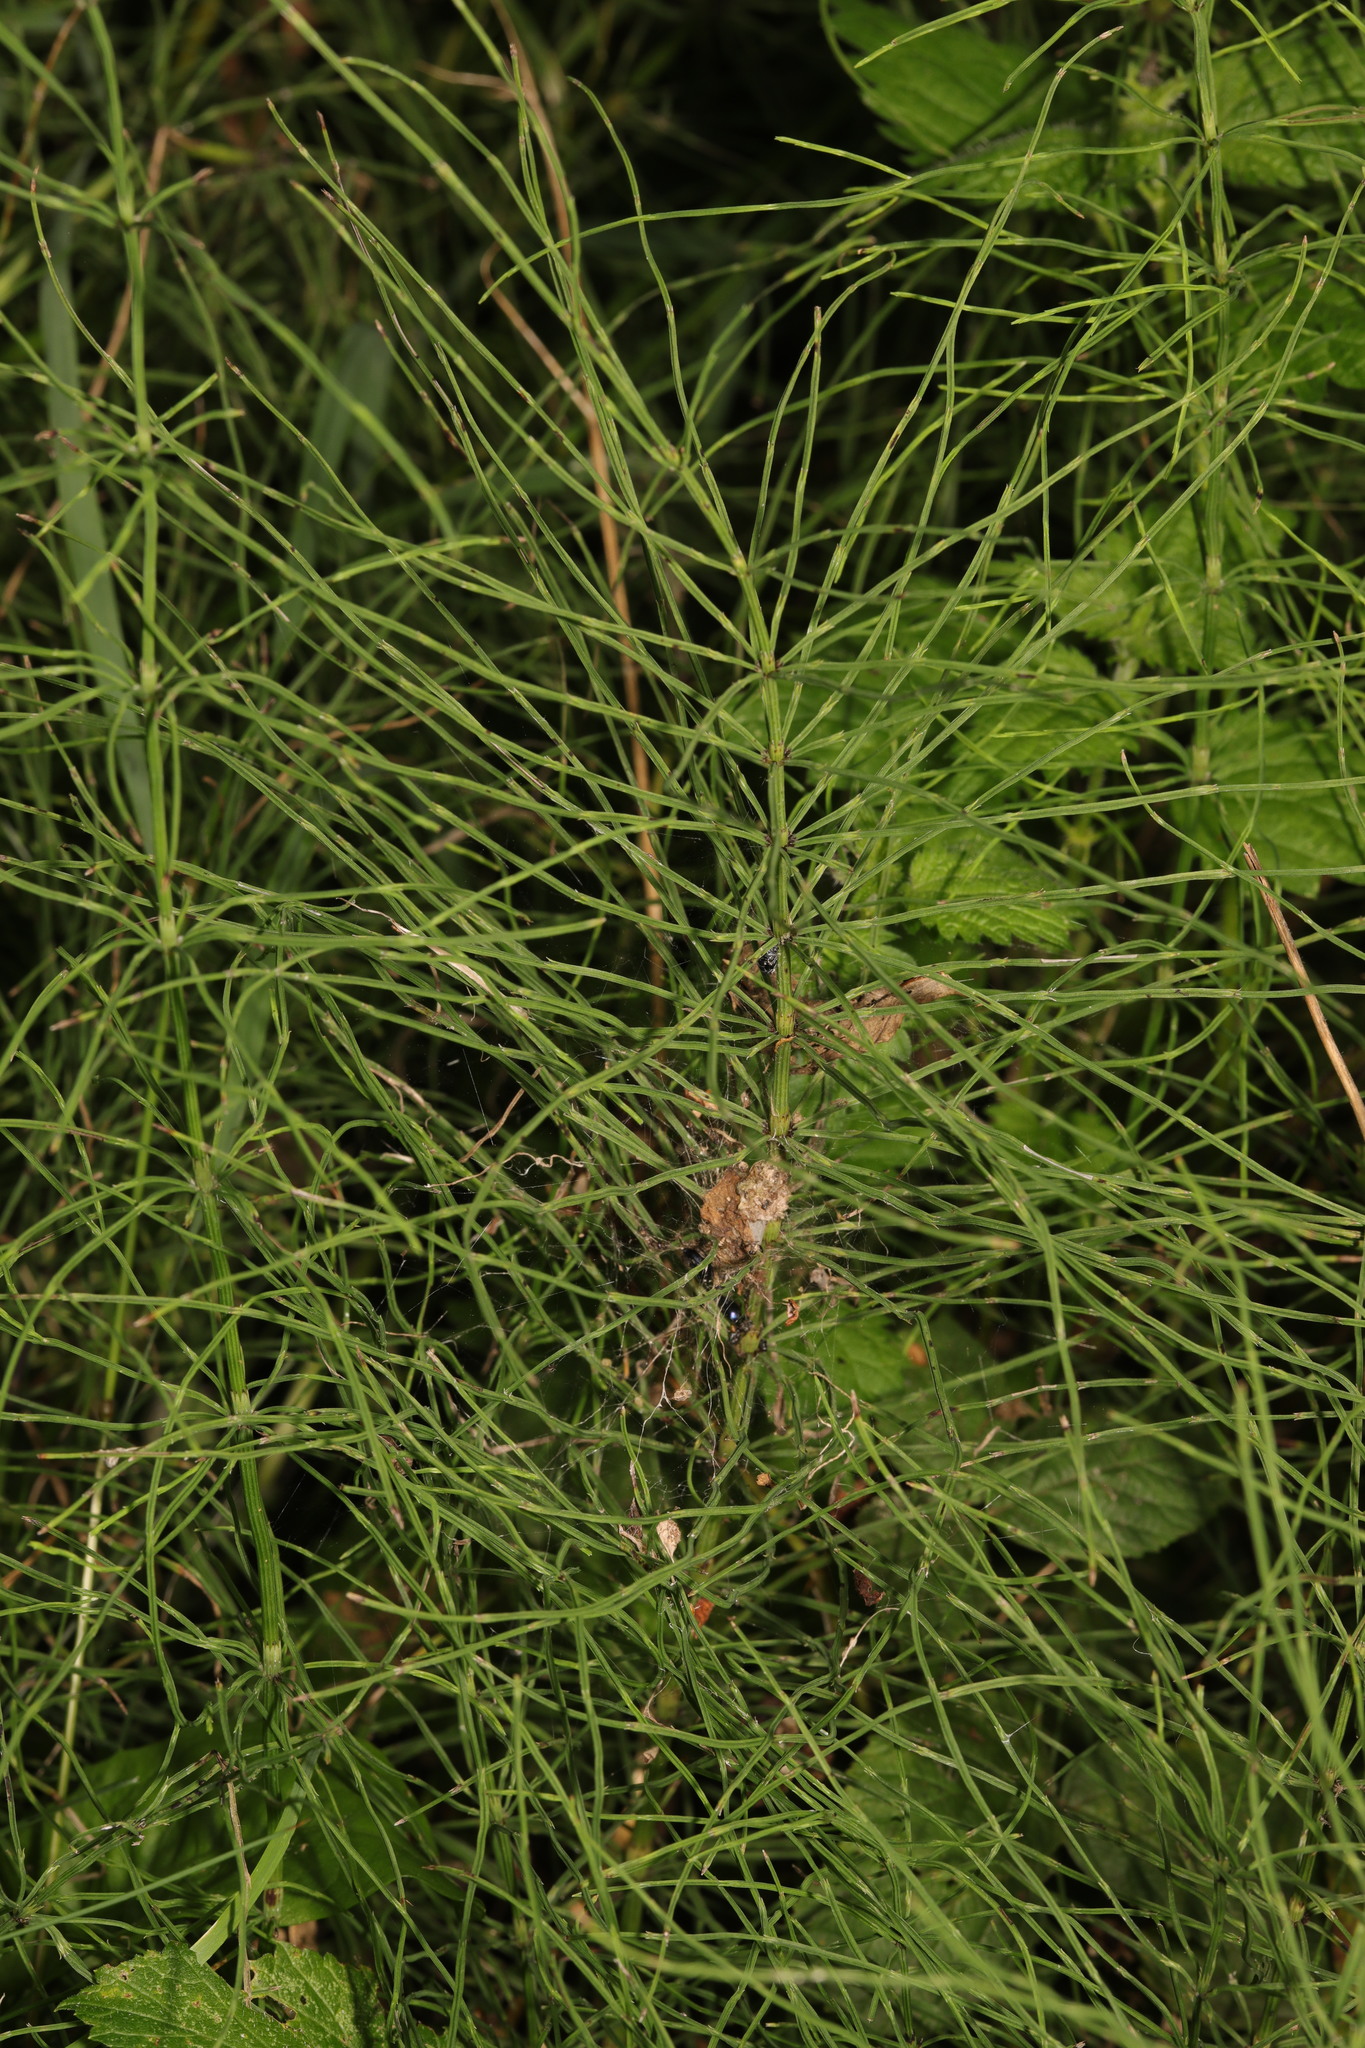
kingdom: Plantae
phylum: Tracheophyta
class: Polypodiopsida
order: Equisetales
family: Equisetaceae
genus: Equisetum
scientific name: Equisetum arvense
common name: Field horsetail
